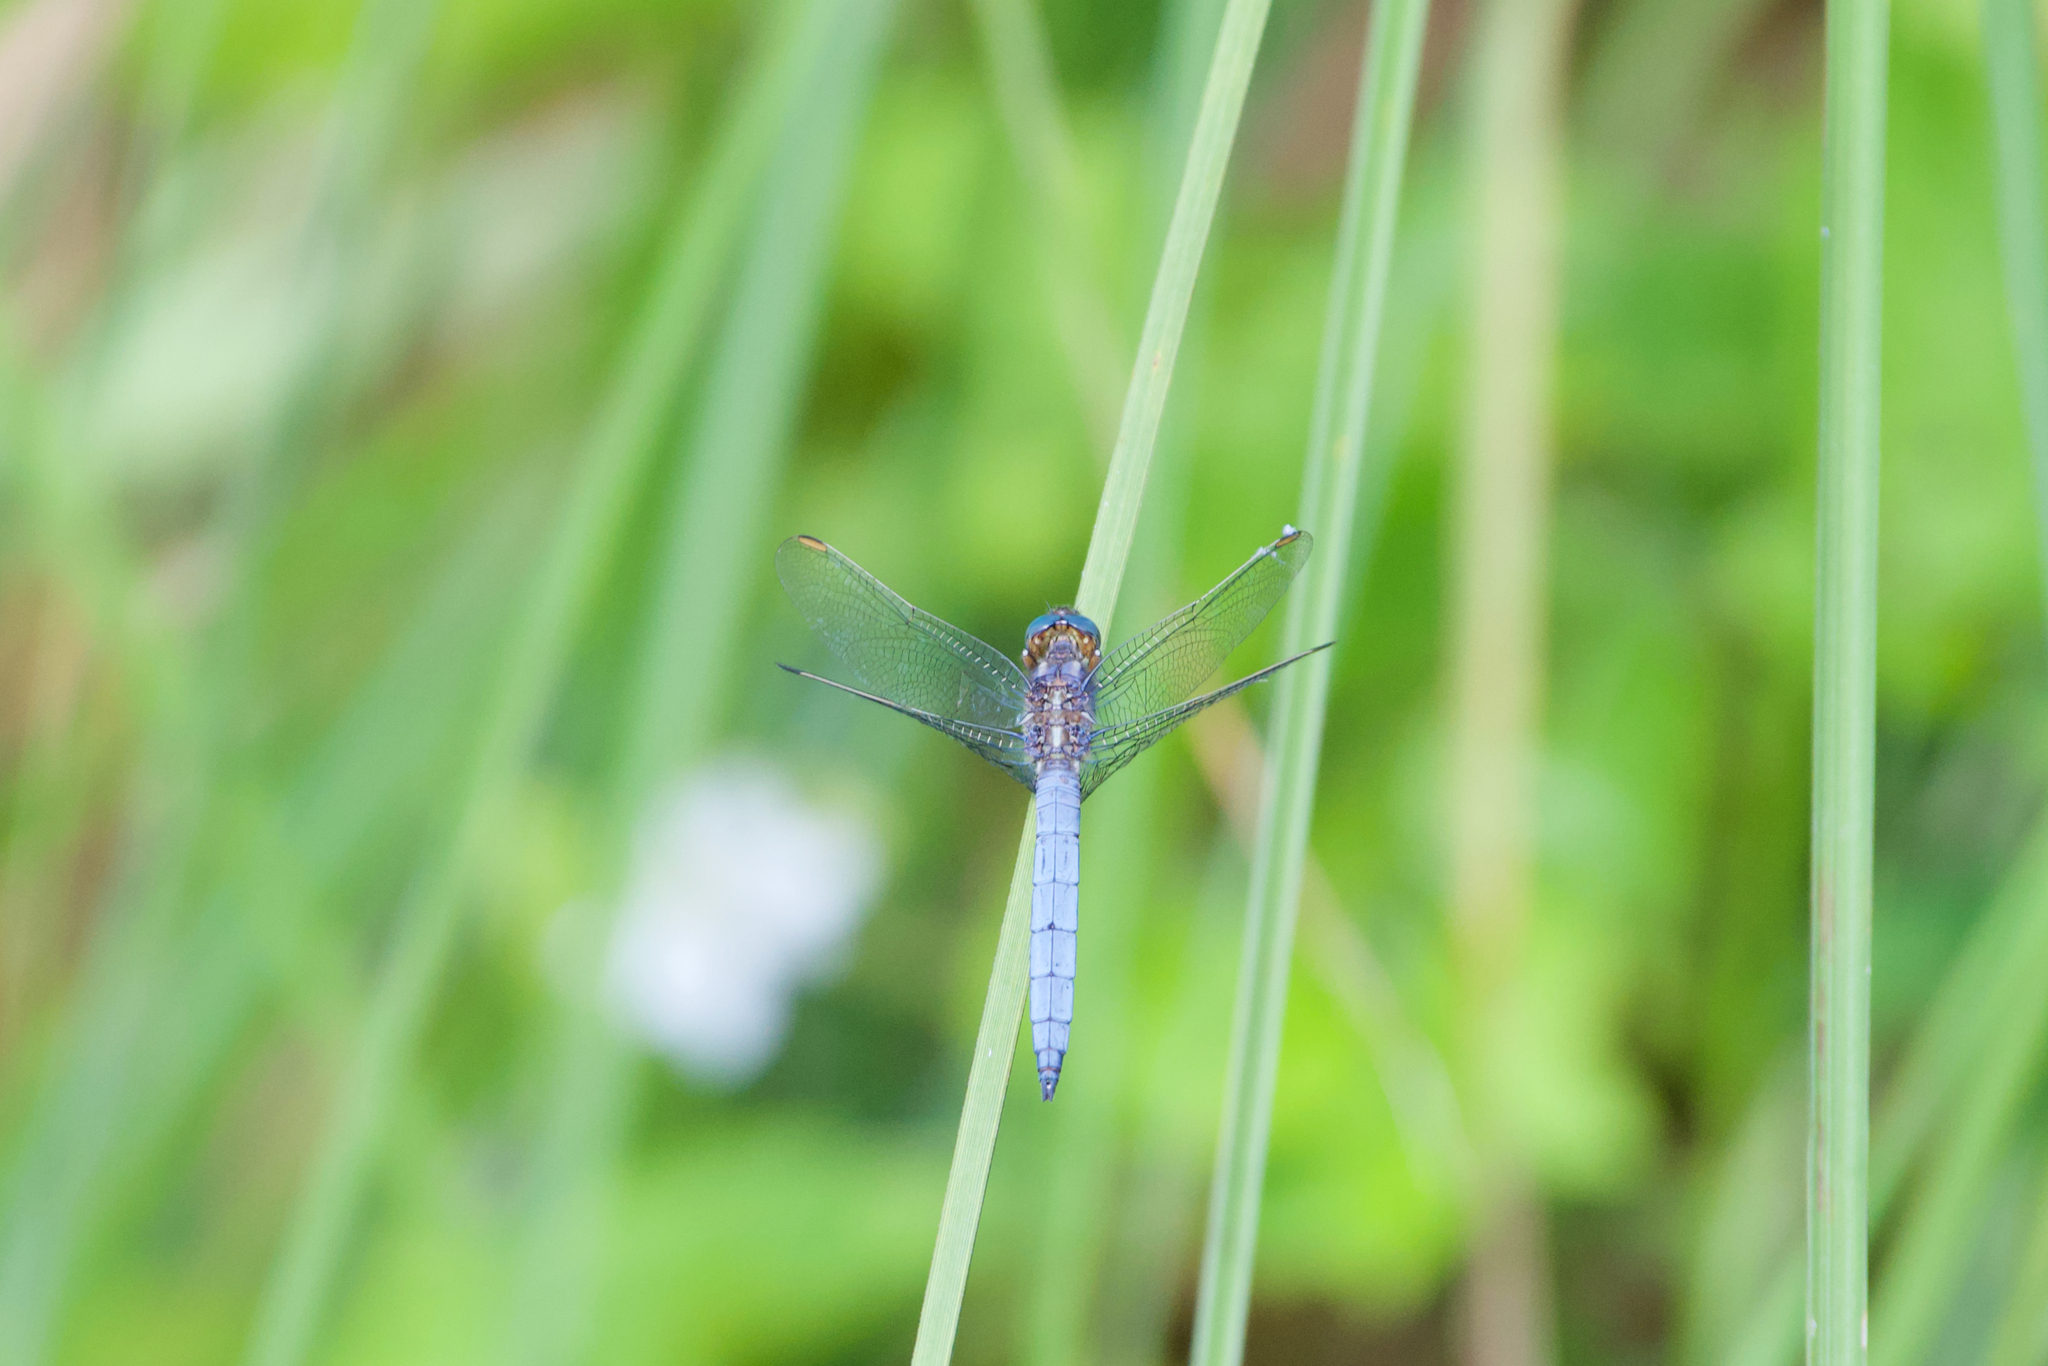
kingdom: Animalia
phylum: Arthropoda
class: Insecta
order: Odonata
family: Libellulidae
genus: Orthetrum
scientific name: Orthetrum coerulescens
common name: Keeled skimmer
